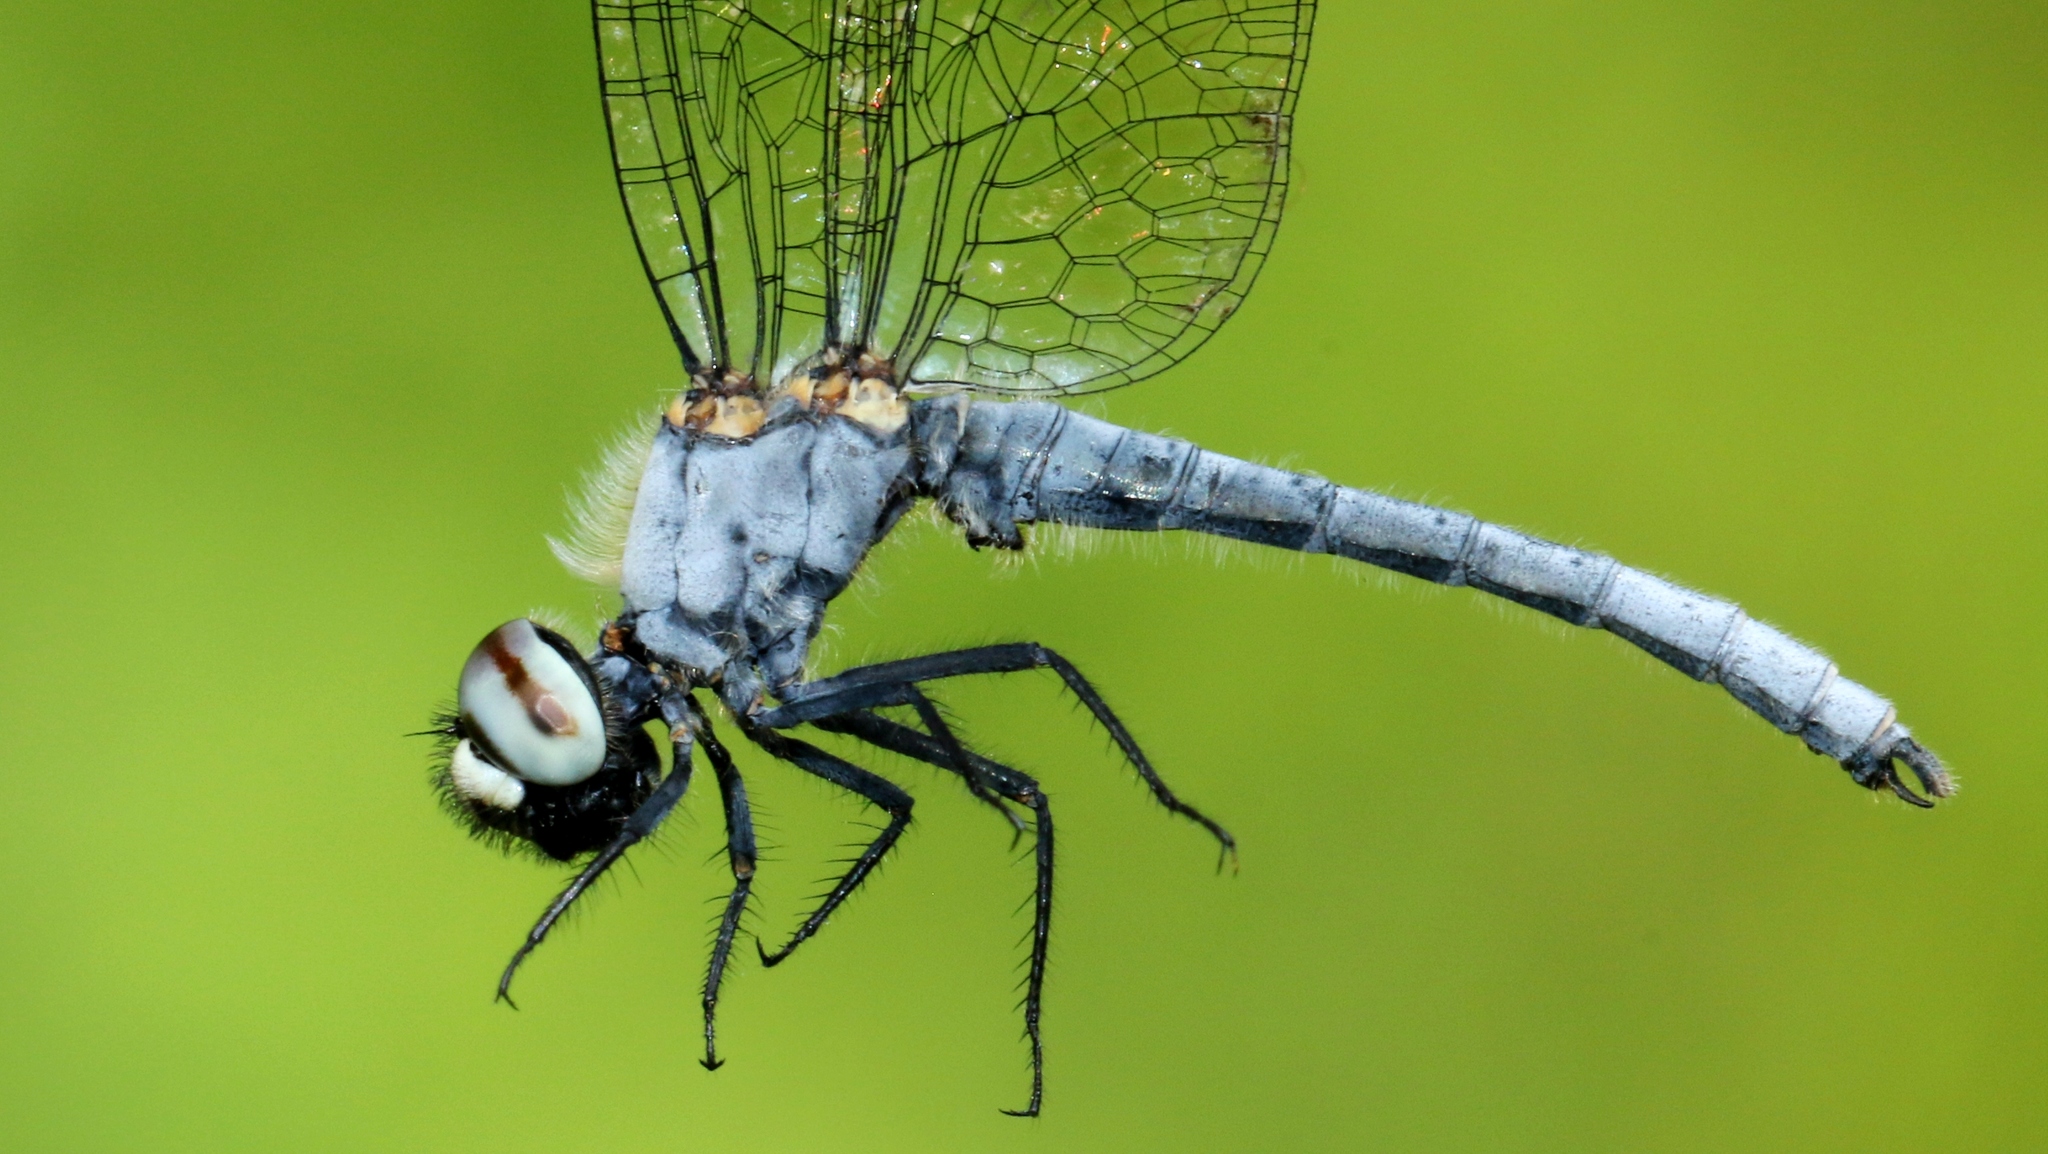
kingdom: Animalia
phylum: Arthropoda
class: Insecta
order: Odonata
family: Libellulidae
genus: Nannothemis
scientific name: Nannothemis bella
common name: Elfin skimmer
